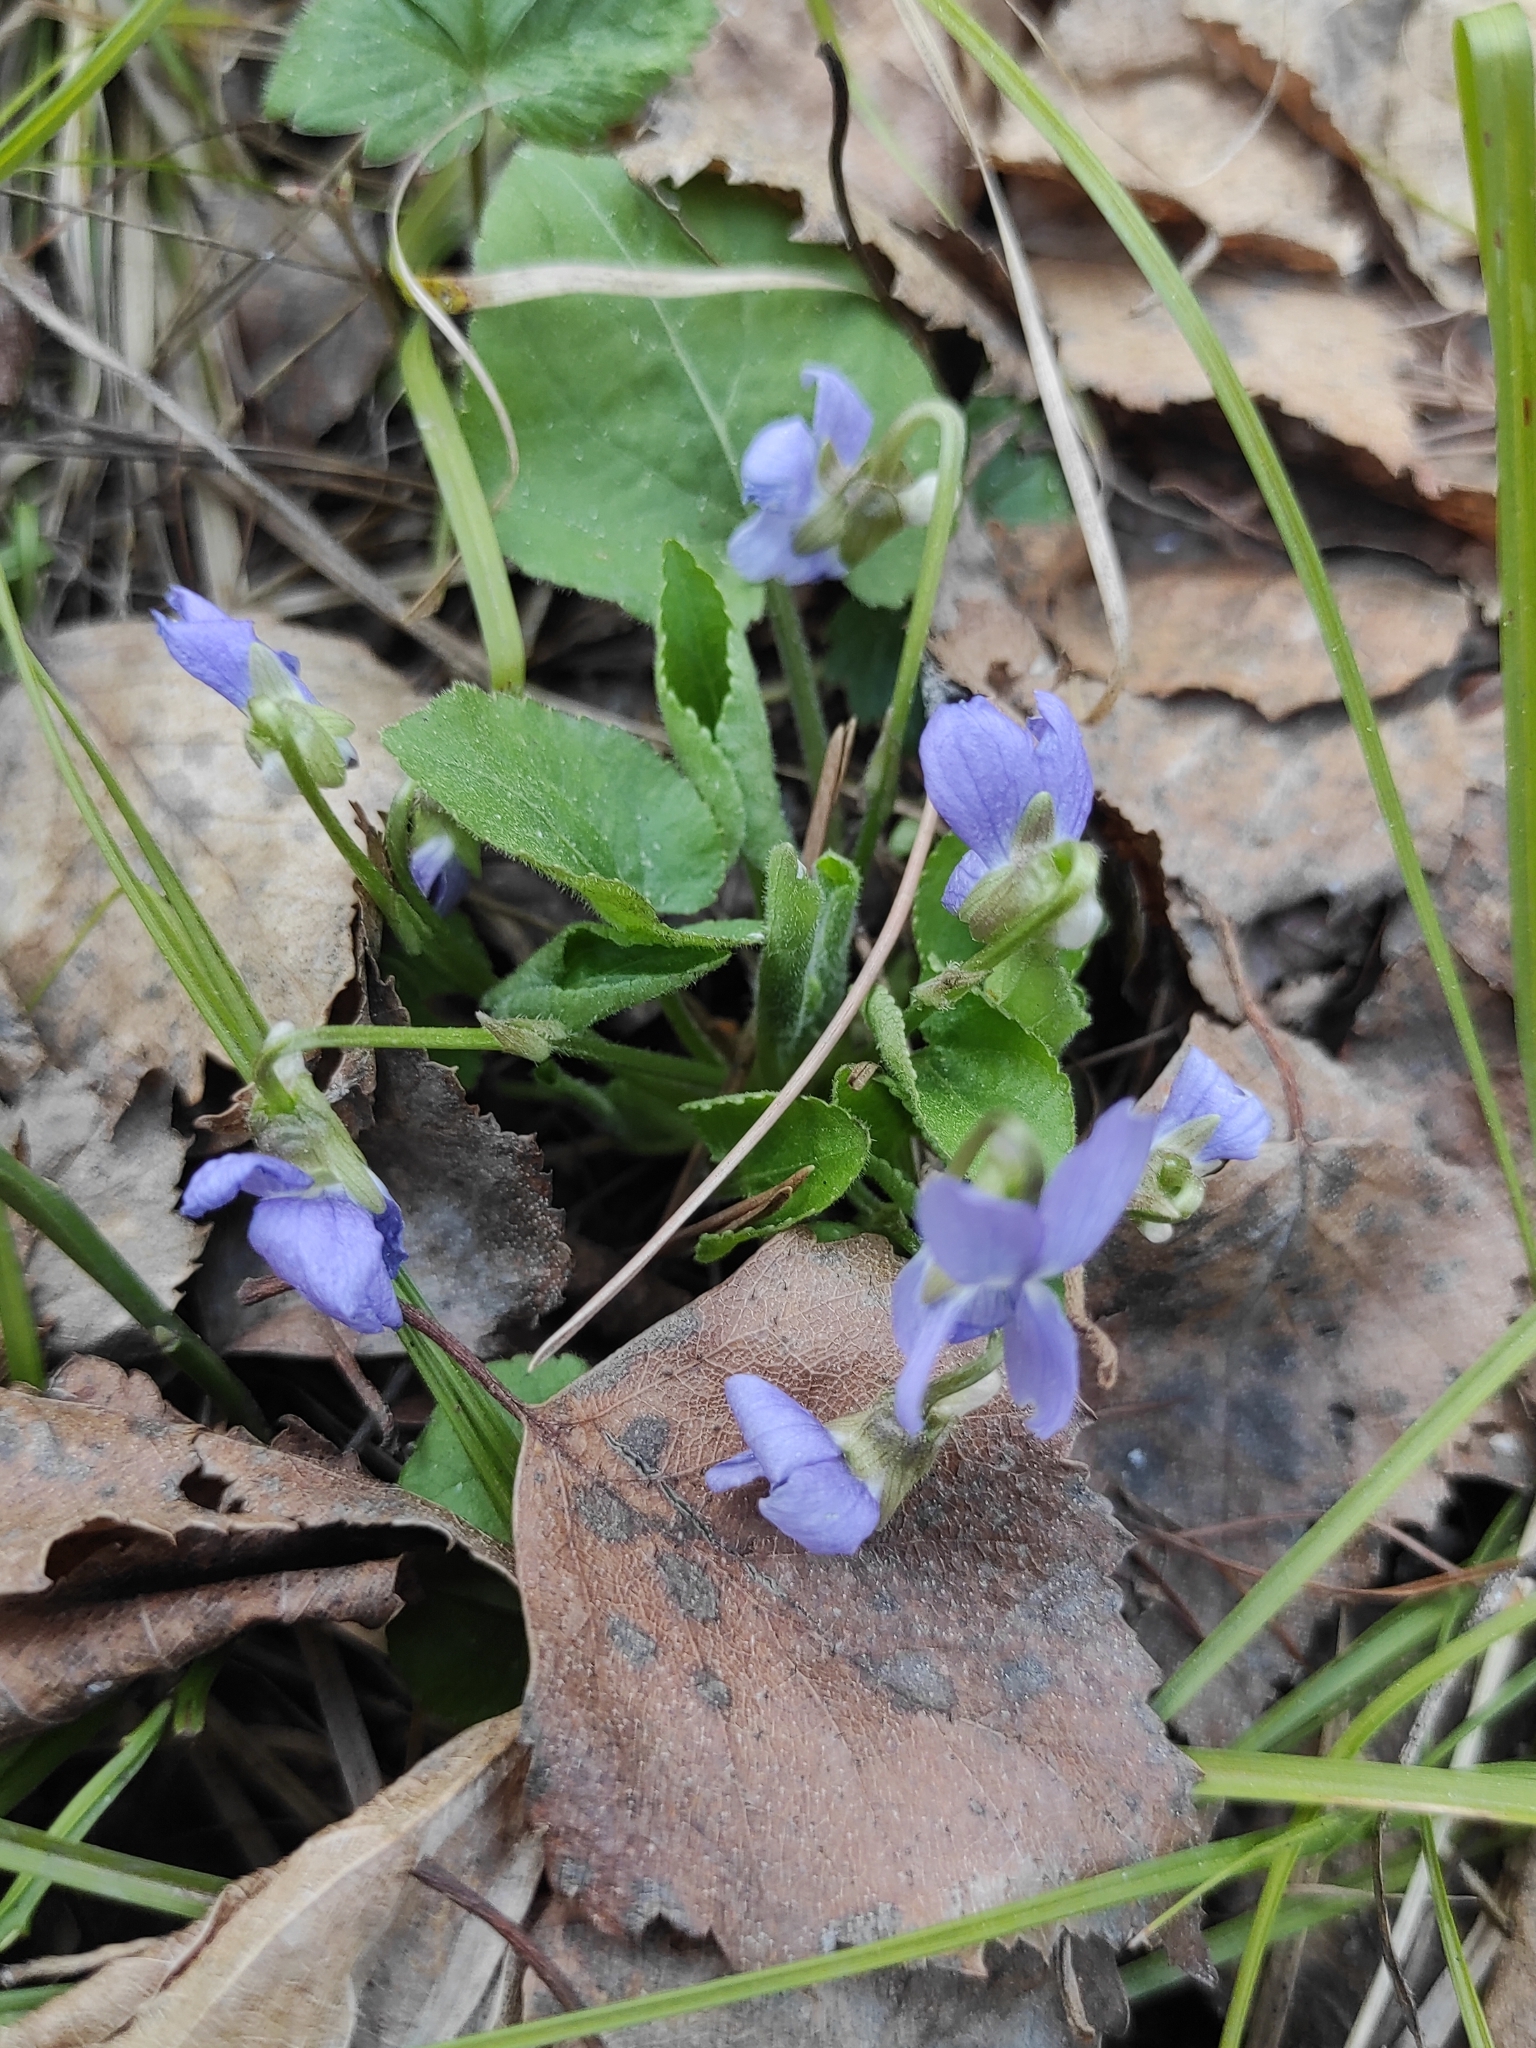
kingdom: Plantae
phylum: Tracheophyta
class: Magnoliopsida
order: Malpighiales
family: Violaceae
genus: Viola
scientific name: Viola collina
